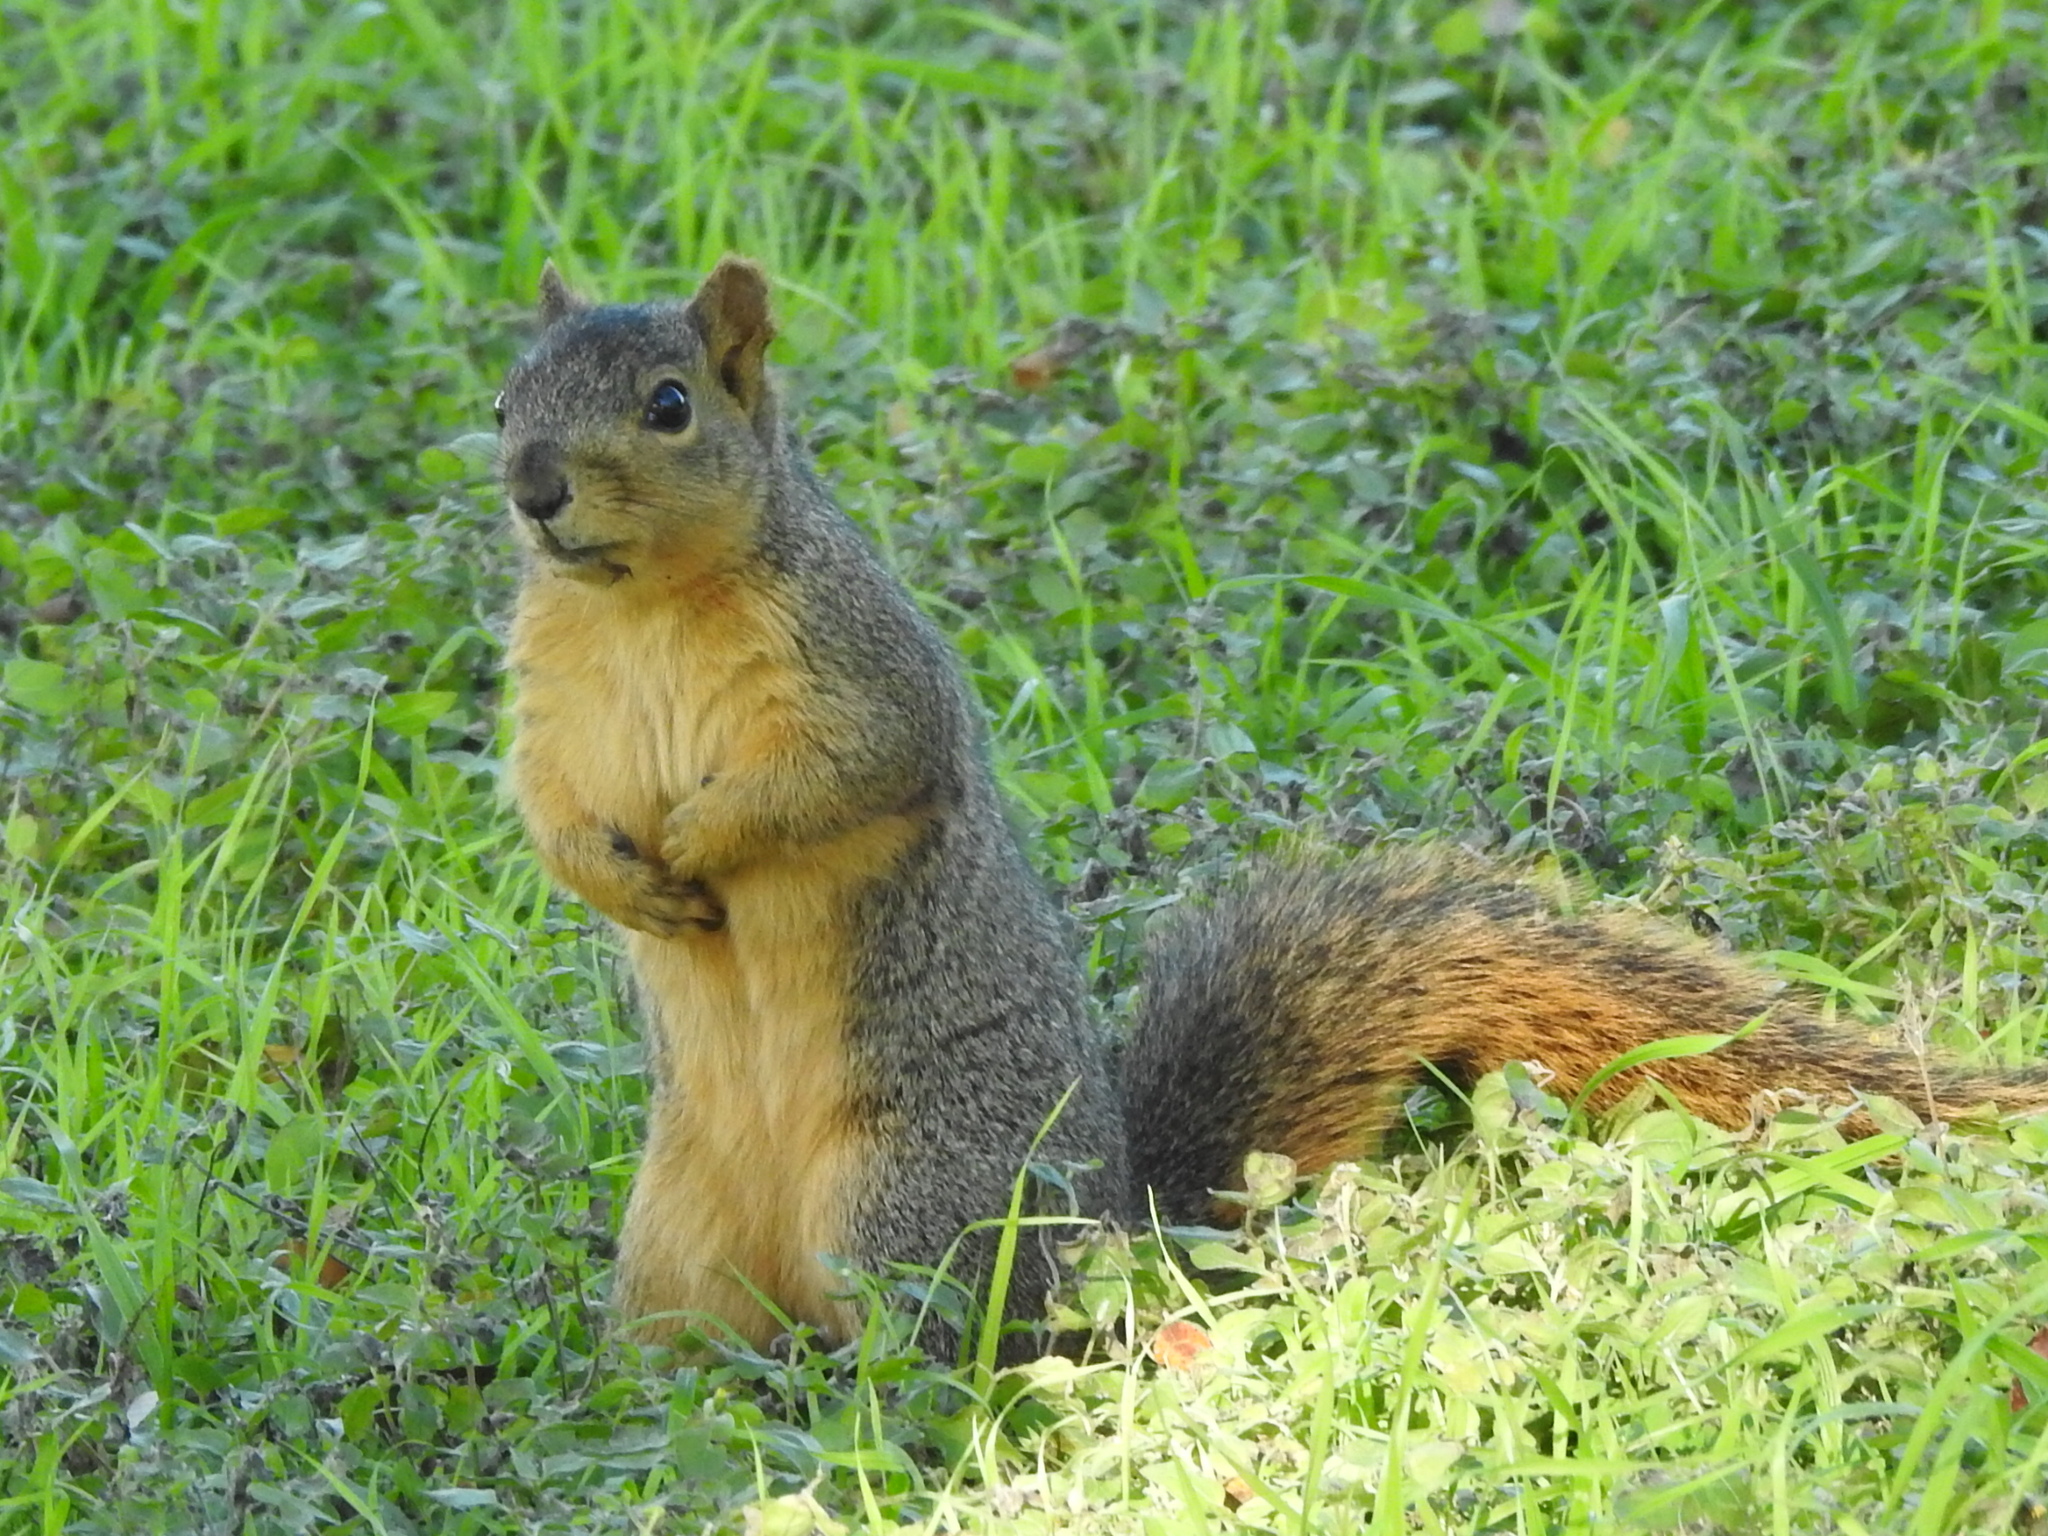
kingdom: Animalia
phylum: Chordata
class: Mammalia
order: Rodentia
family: Sciuridae
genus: Sciurus
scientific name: Sciurus niger
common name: Fox squirrel
